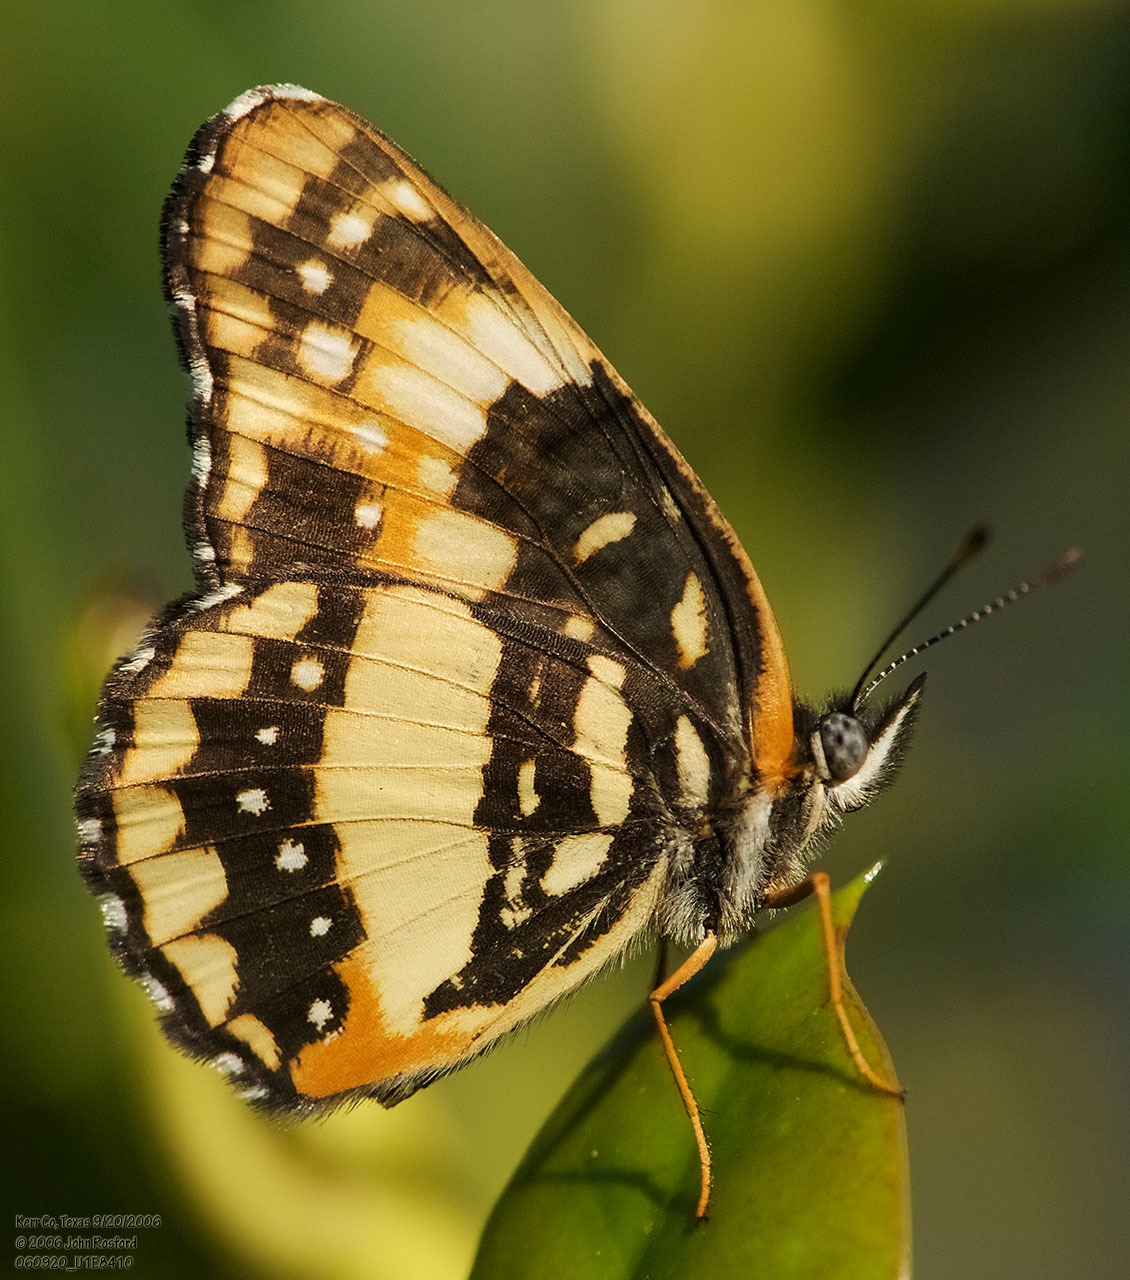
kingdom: Animalia
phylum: Arthropoda
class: Insecta
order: Lepidoptera
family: Nymphalidae
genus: Chlosyne
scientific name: Chlosyne lacinia
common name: Bordered patch
